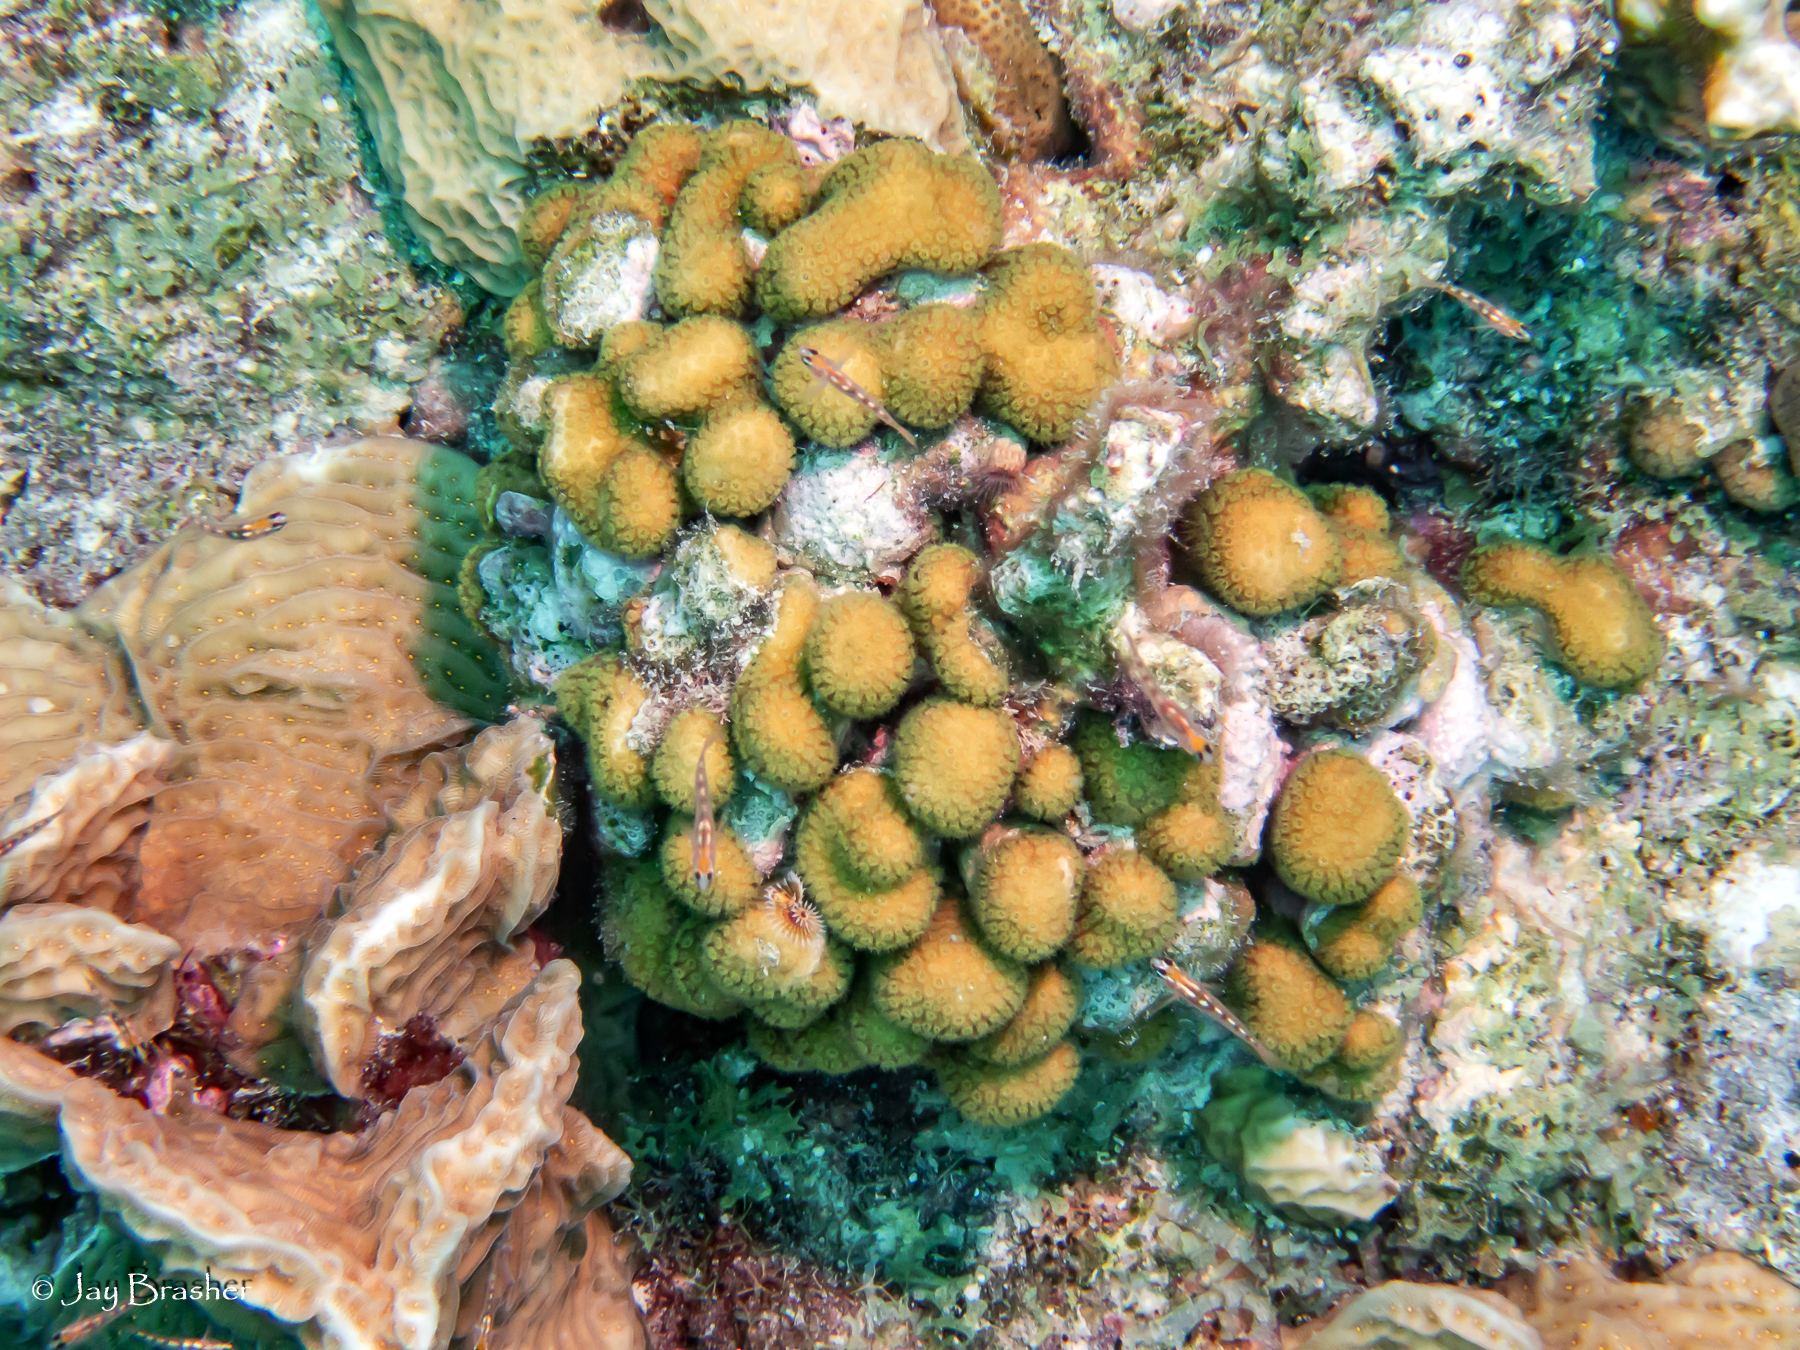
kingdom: Animalia
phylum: Cnidaria
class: Anthozoa
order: Scleractinia
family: Pocilloporidae
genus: Madracis
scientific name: Madracis decactis
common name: Ten-ray star coral
